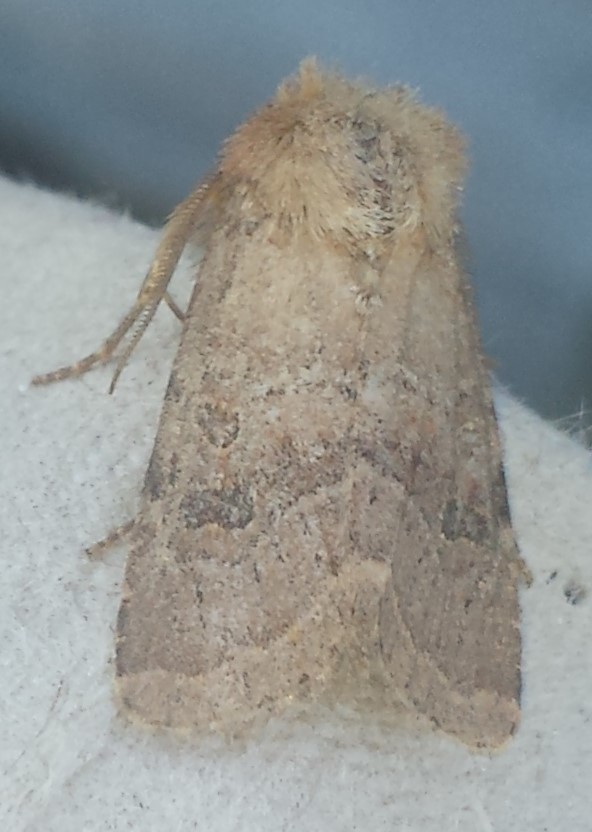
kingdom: Animalia
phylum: Arthropoda
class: Insecta
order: Lepidoptera
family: Noctuidae
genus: Trichopolia
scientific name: Trichopolia
